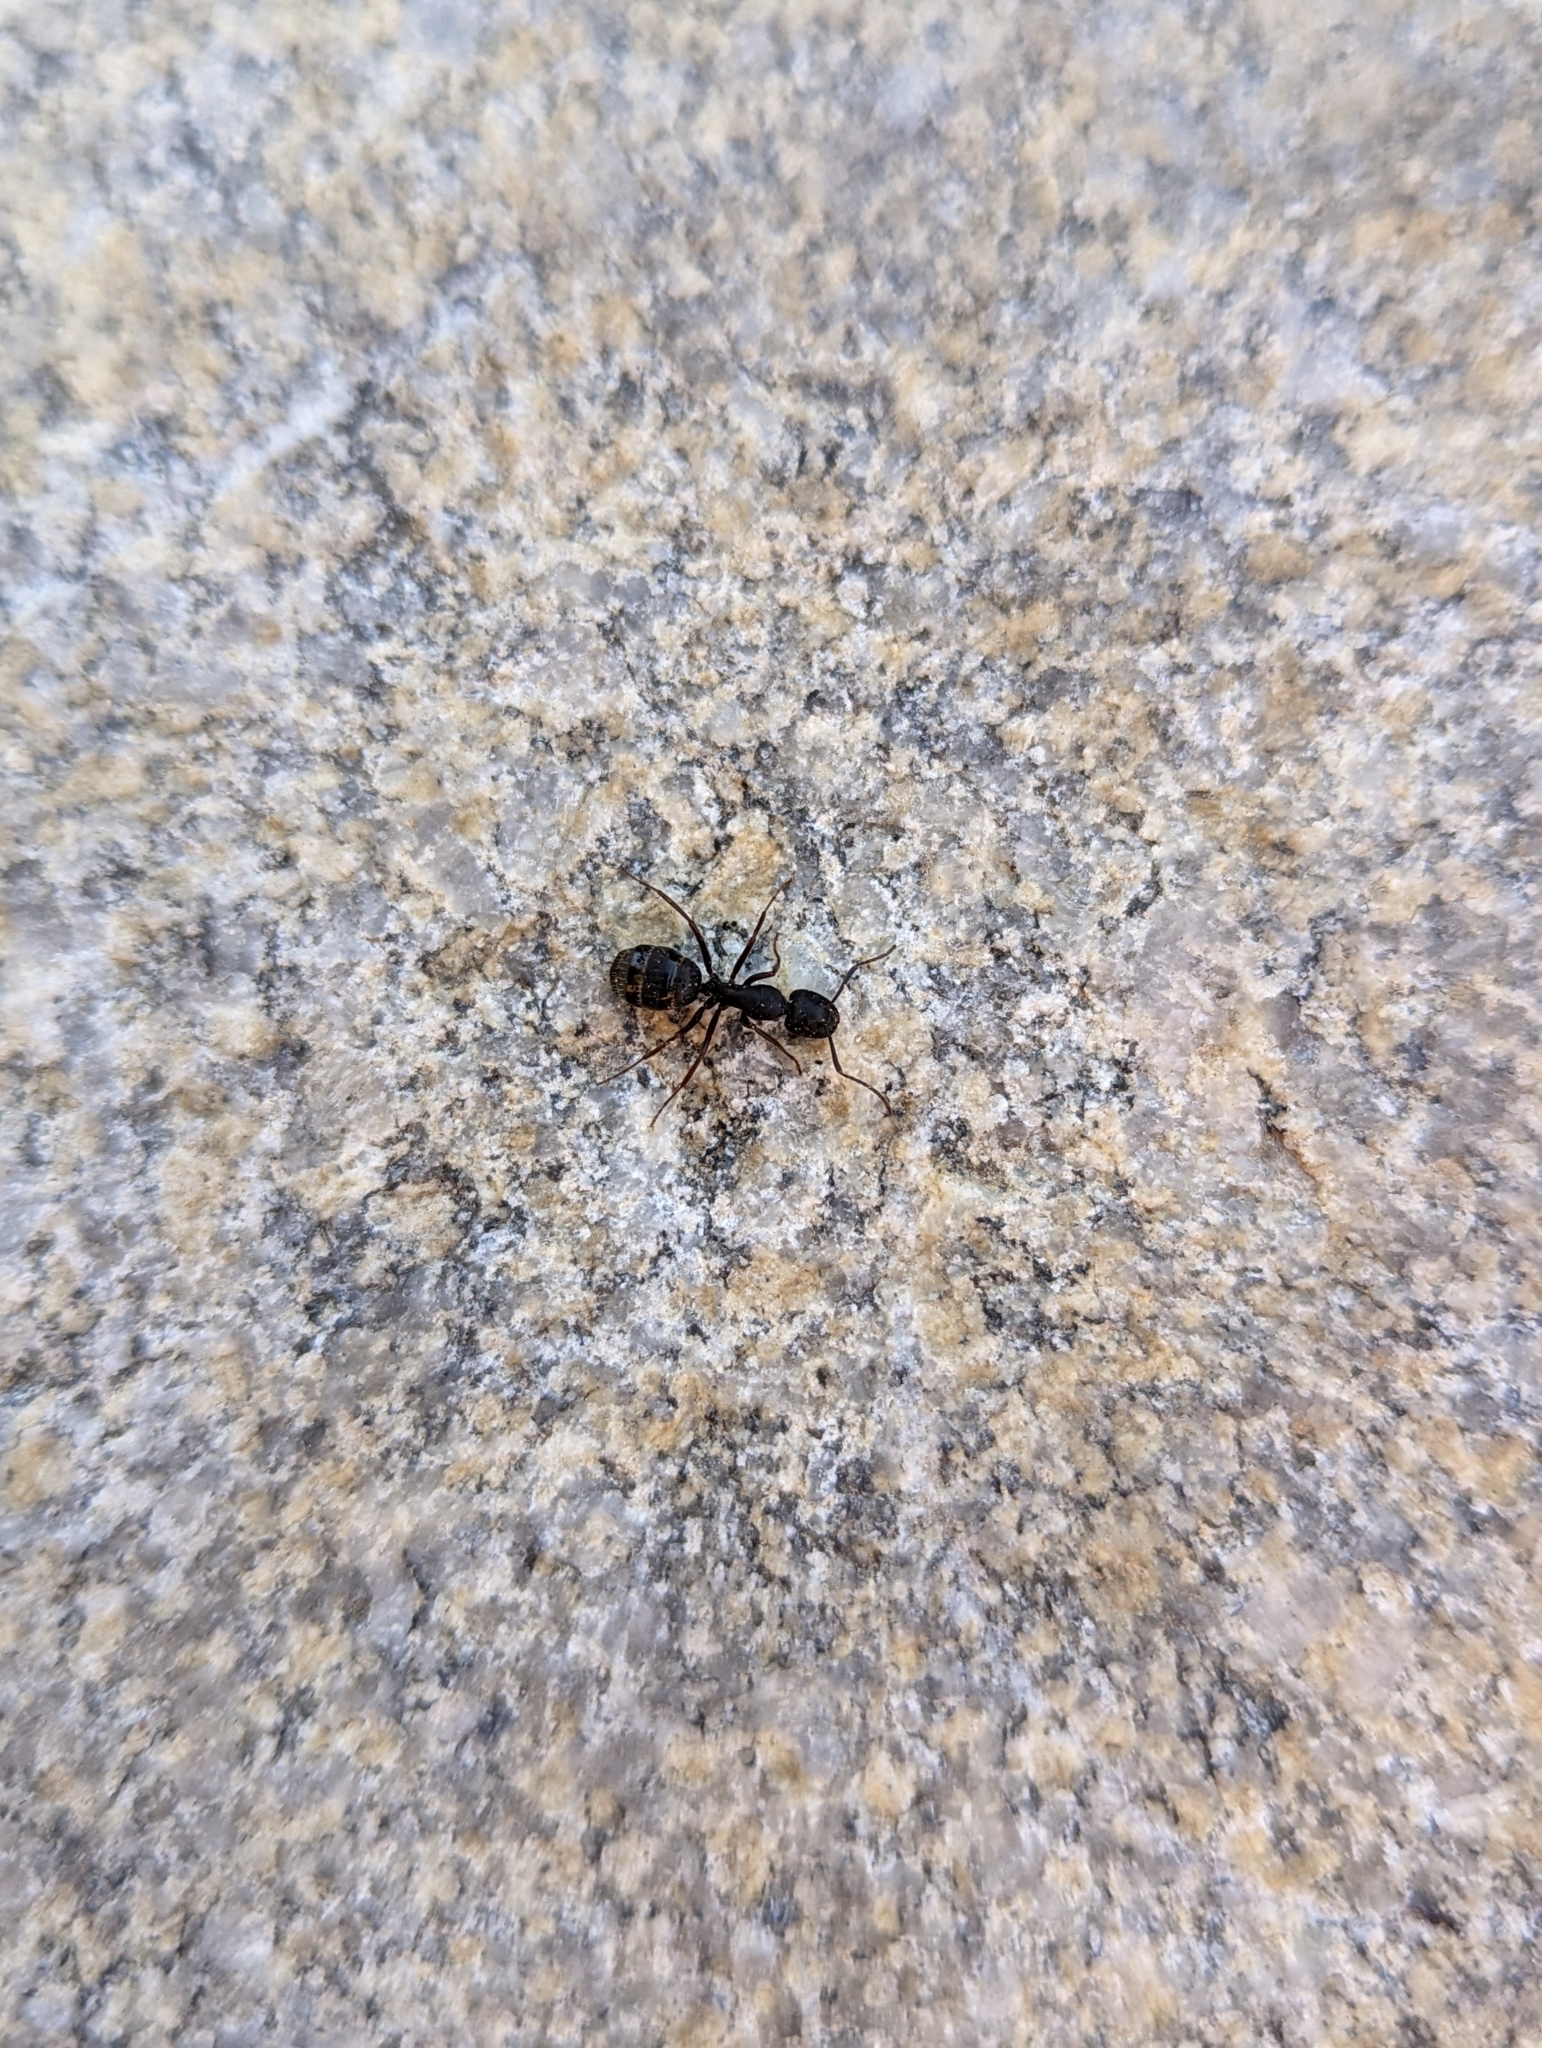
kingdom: Animalia
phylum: Arthropoda
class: Insecta
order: Hymenoptera
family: Formicidae
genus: Camponotus
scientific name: Camponotus modoc
